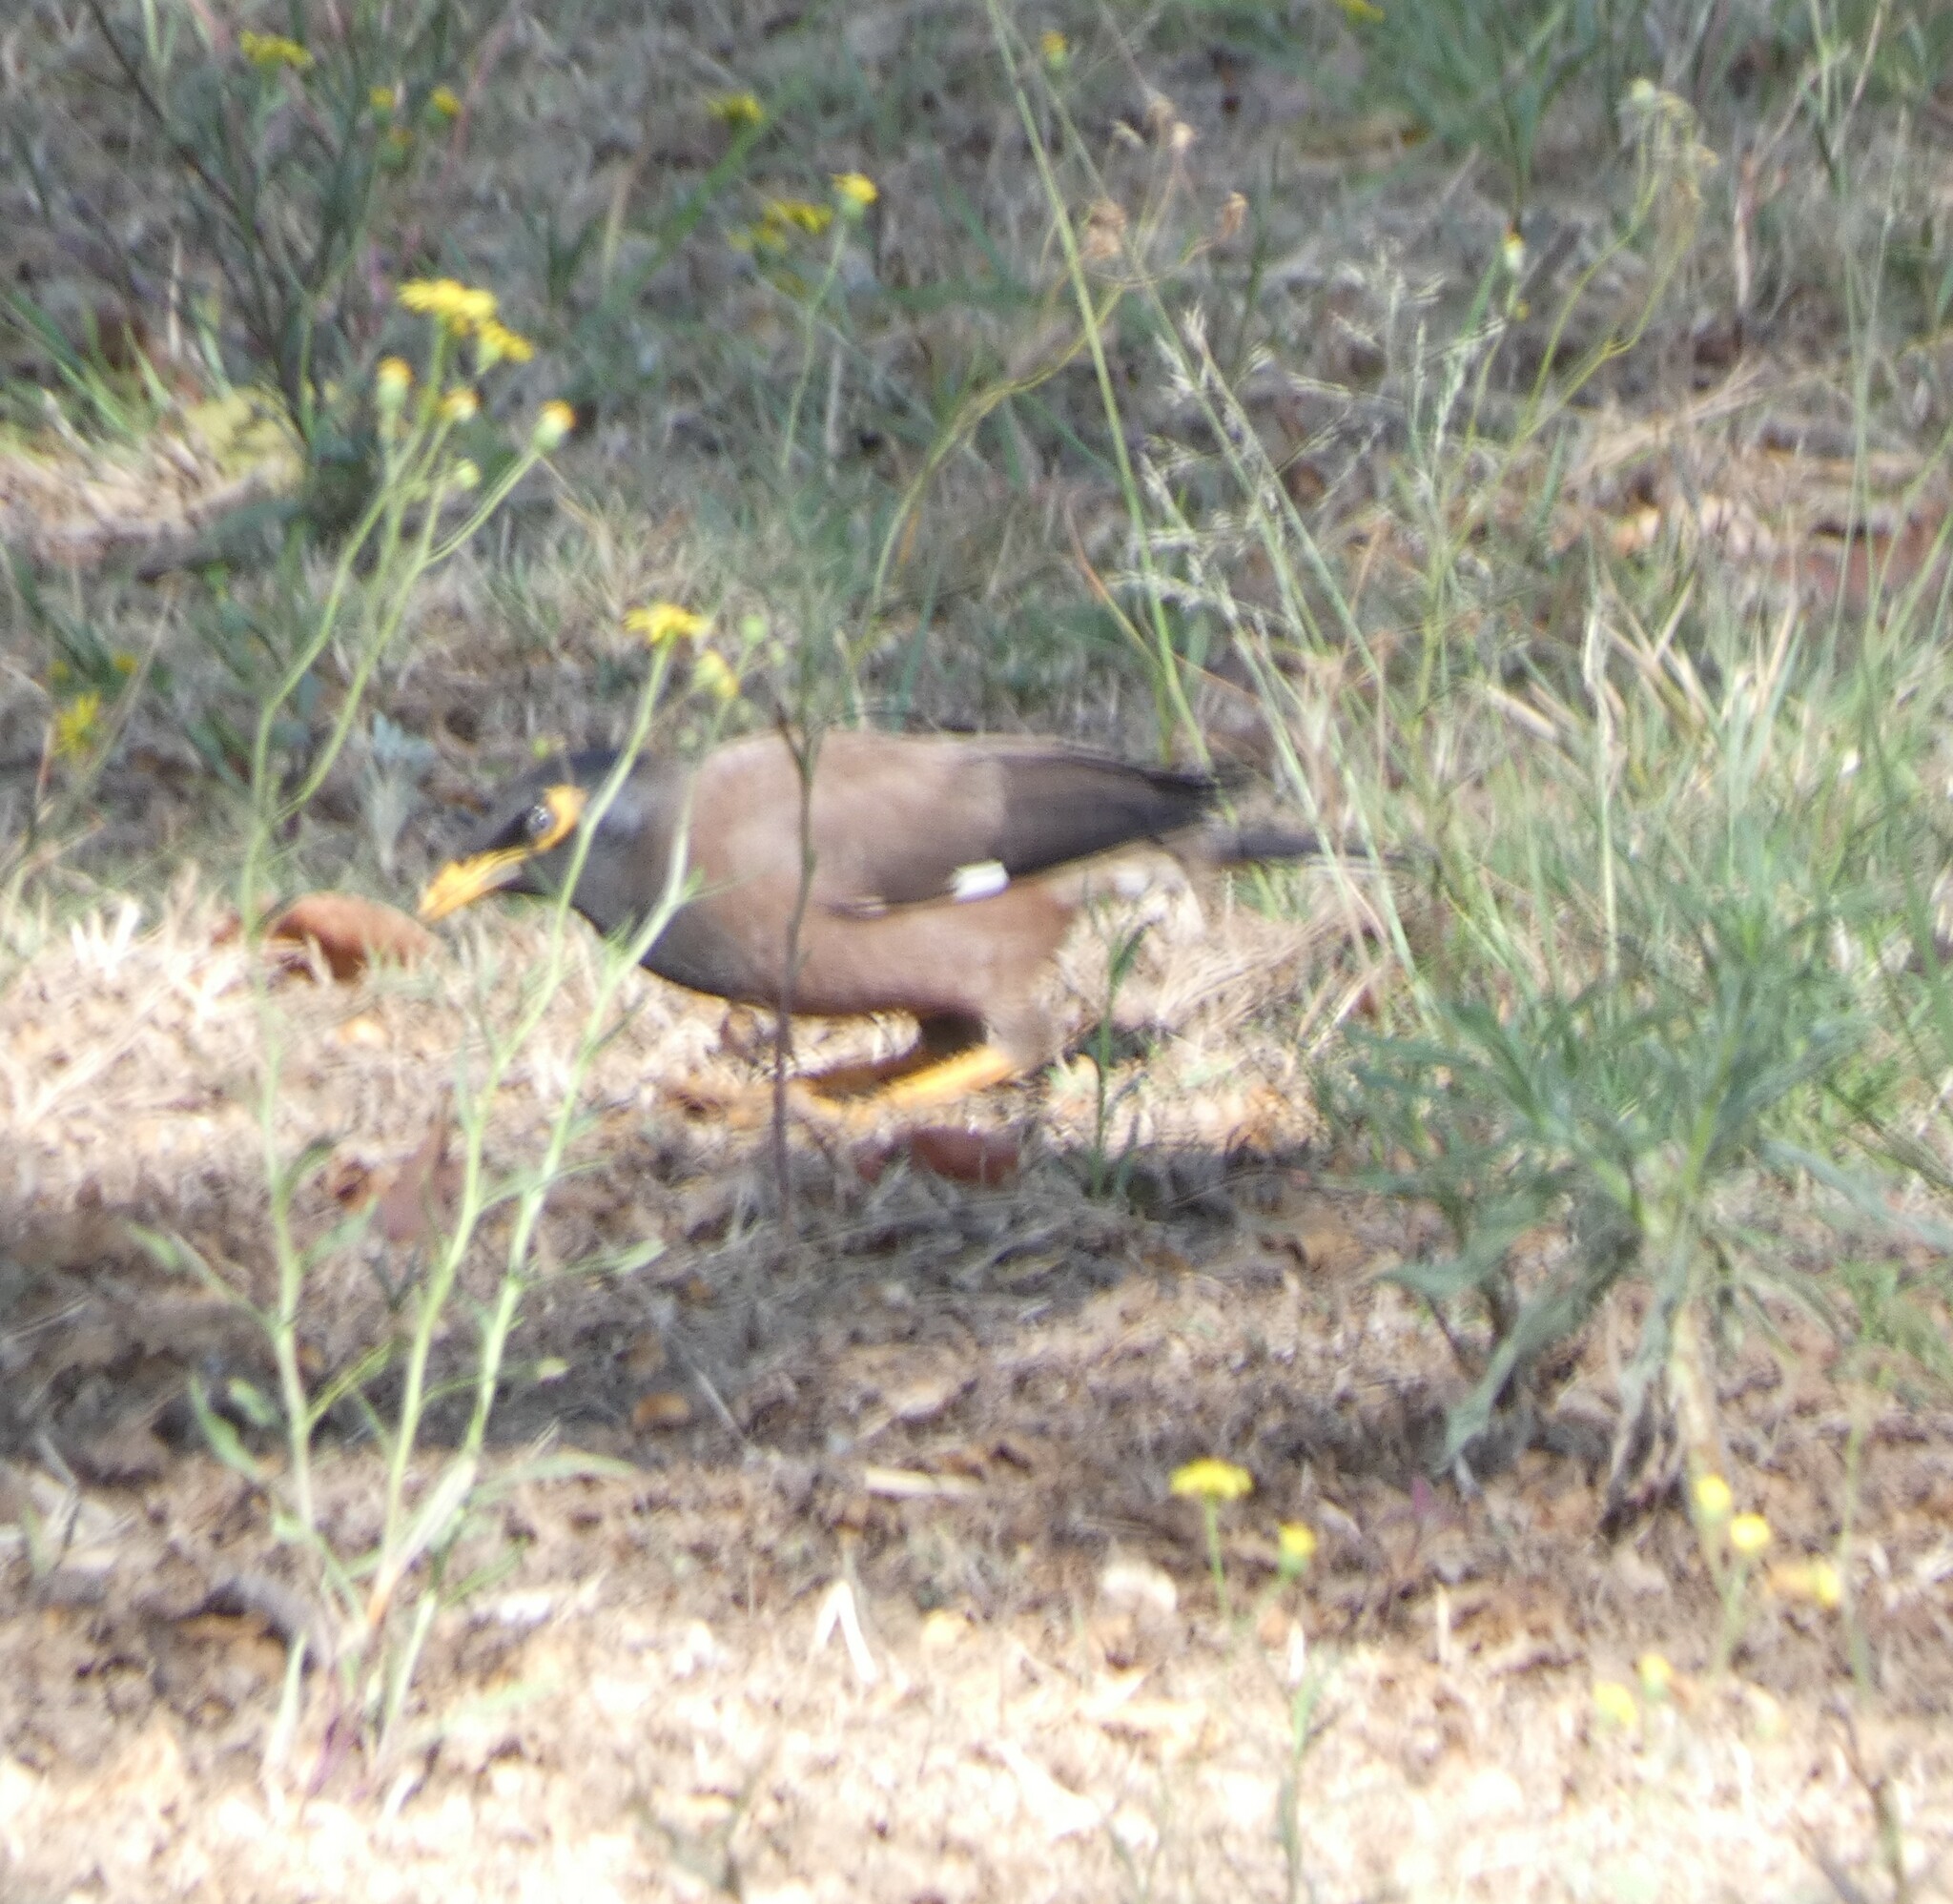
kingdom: Animalia
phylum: Chordata
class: Aves
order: Passeriformes
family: Sturnidae
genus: Acridotheres
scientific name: Acridotheres tristis
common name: Common myna
